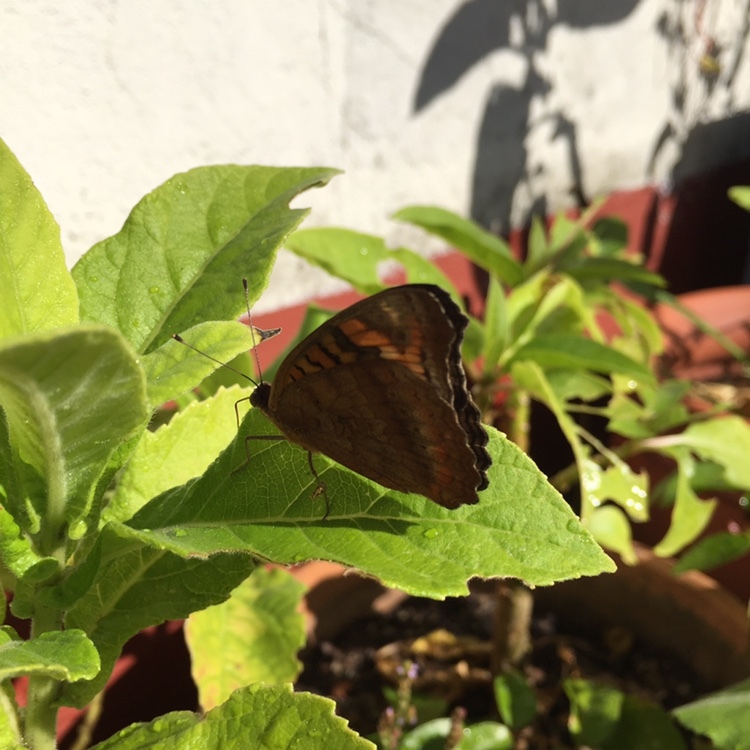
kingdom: Animalia
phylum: Arthropoda
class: Insecta
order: Lepidoptera
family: Nymphalidae
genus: Junonia
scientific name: Junonia lavinia
